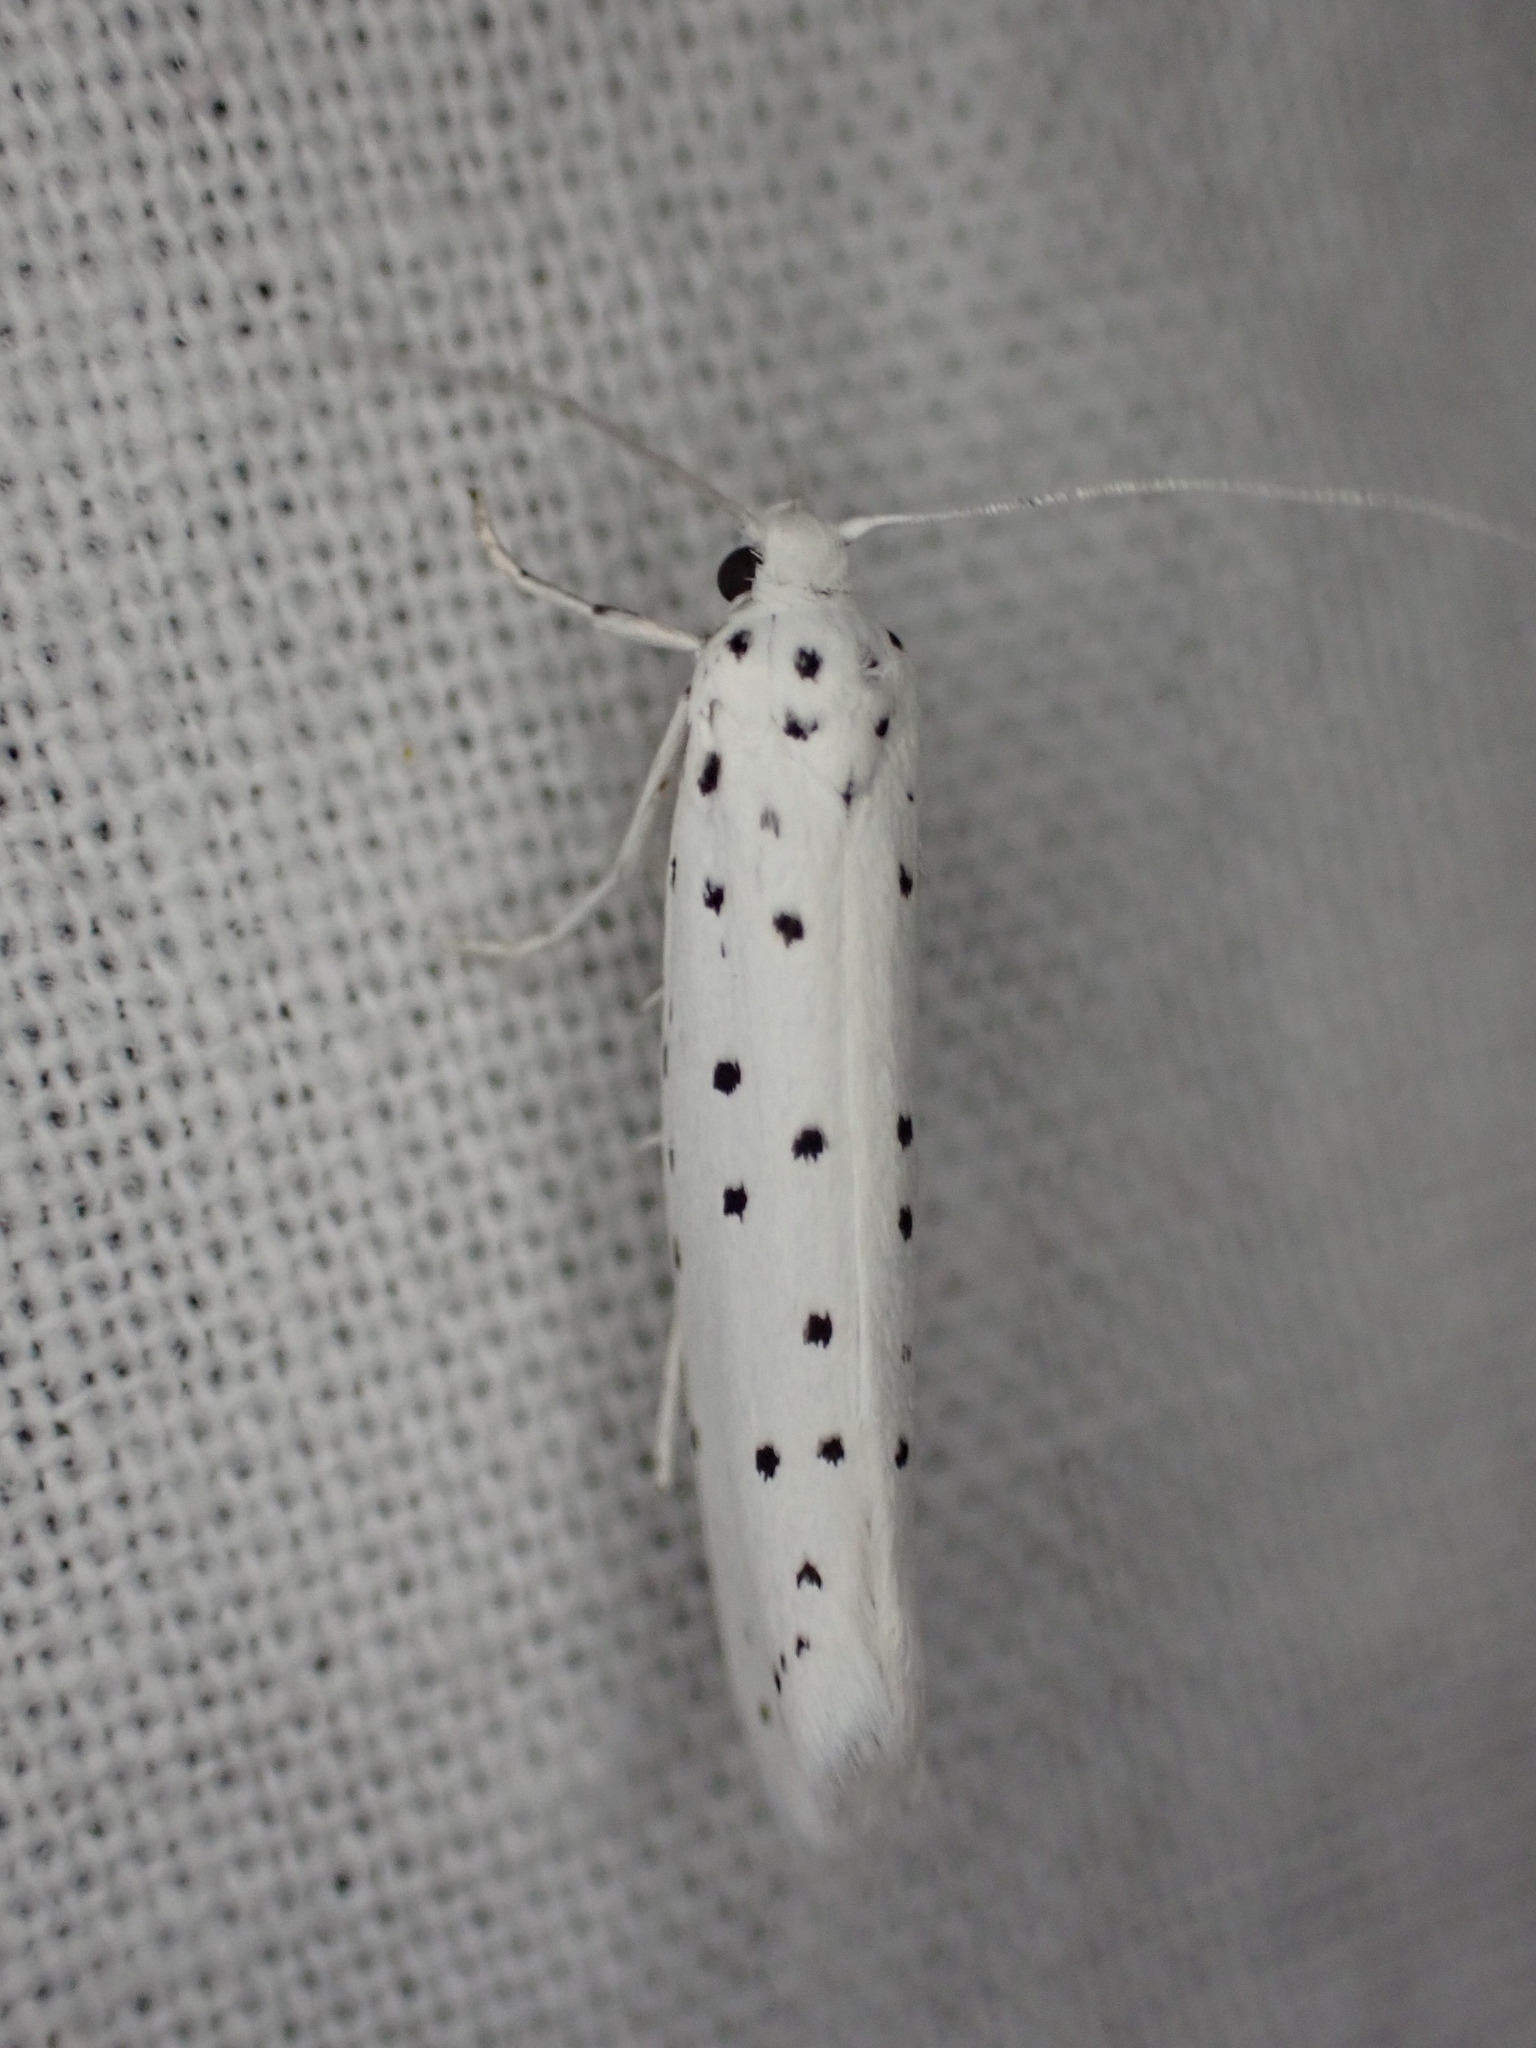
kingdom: Animalia
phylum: Arthropoda
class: Insecta
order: Lepidoptera
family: Yponomeutidae
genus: Yponomeuta
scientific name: Yponomeuta
